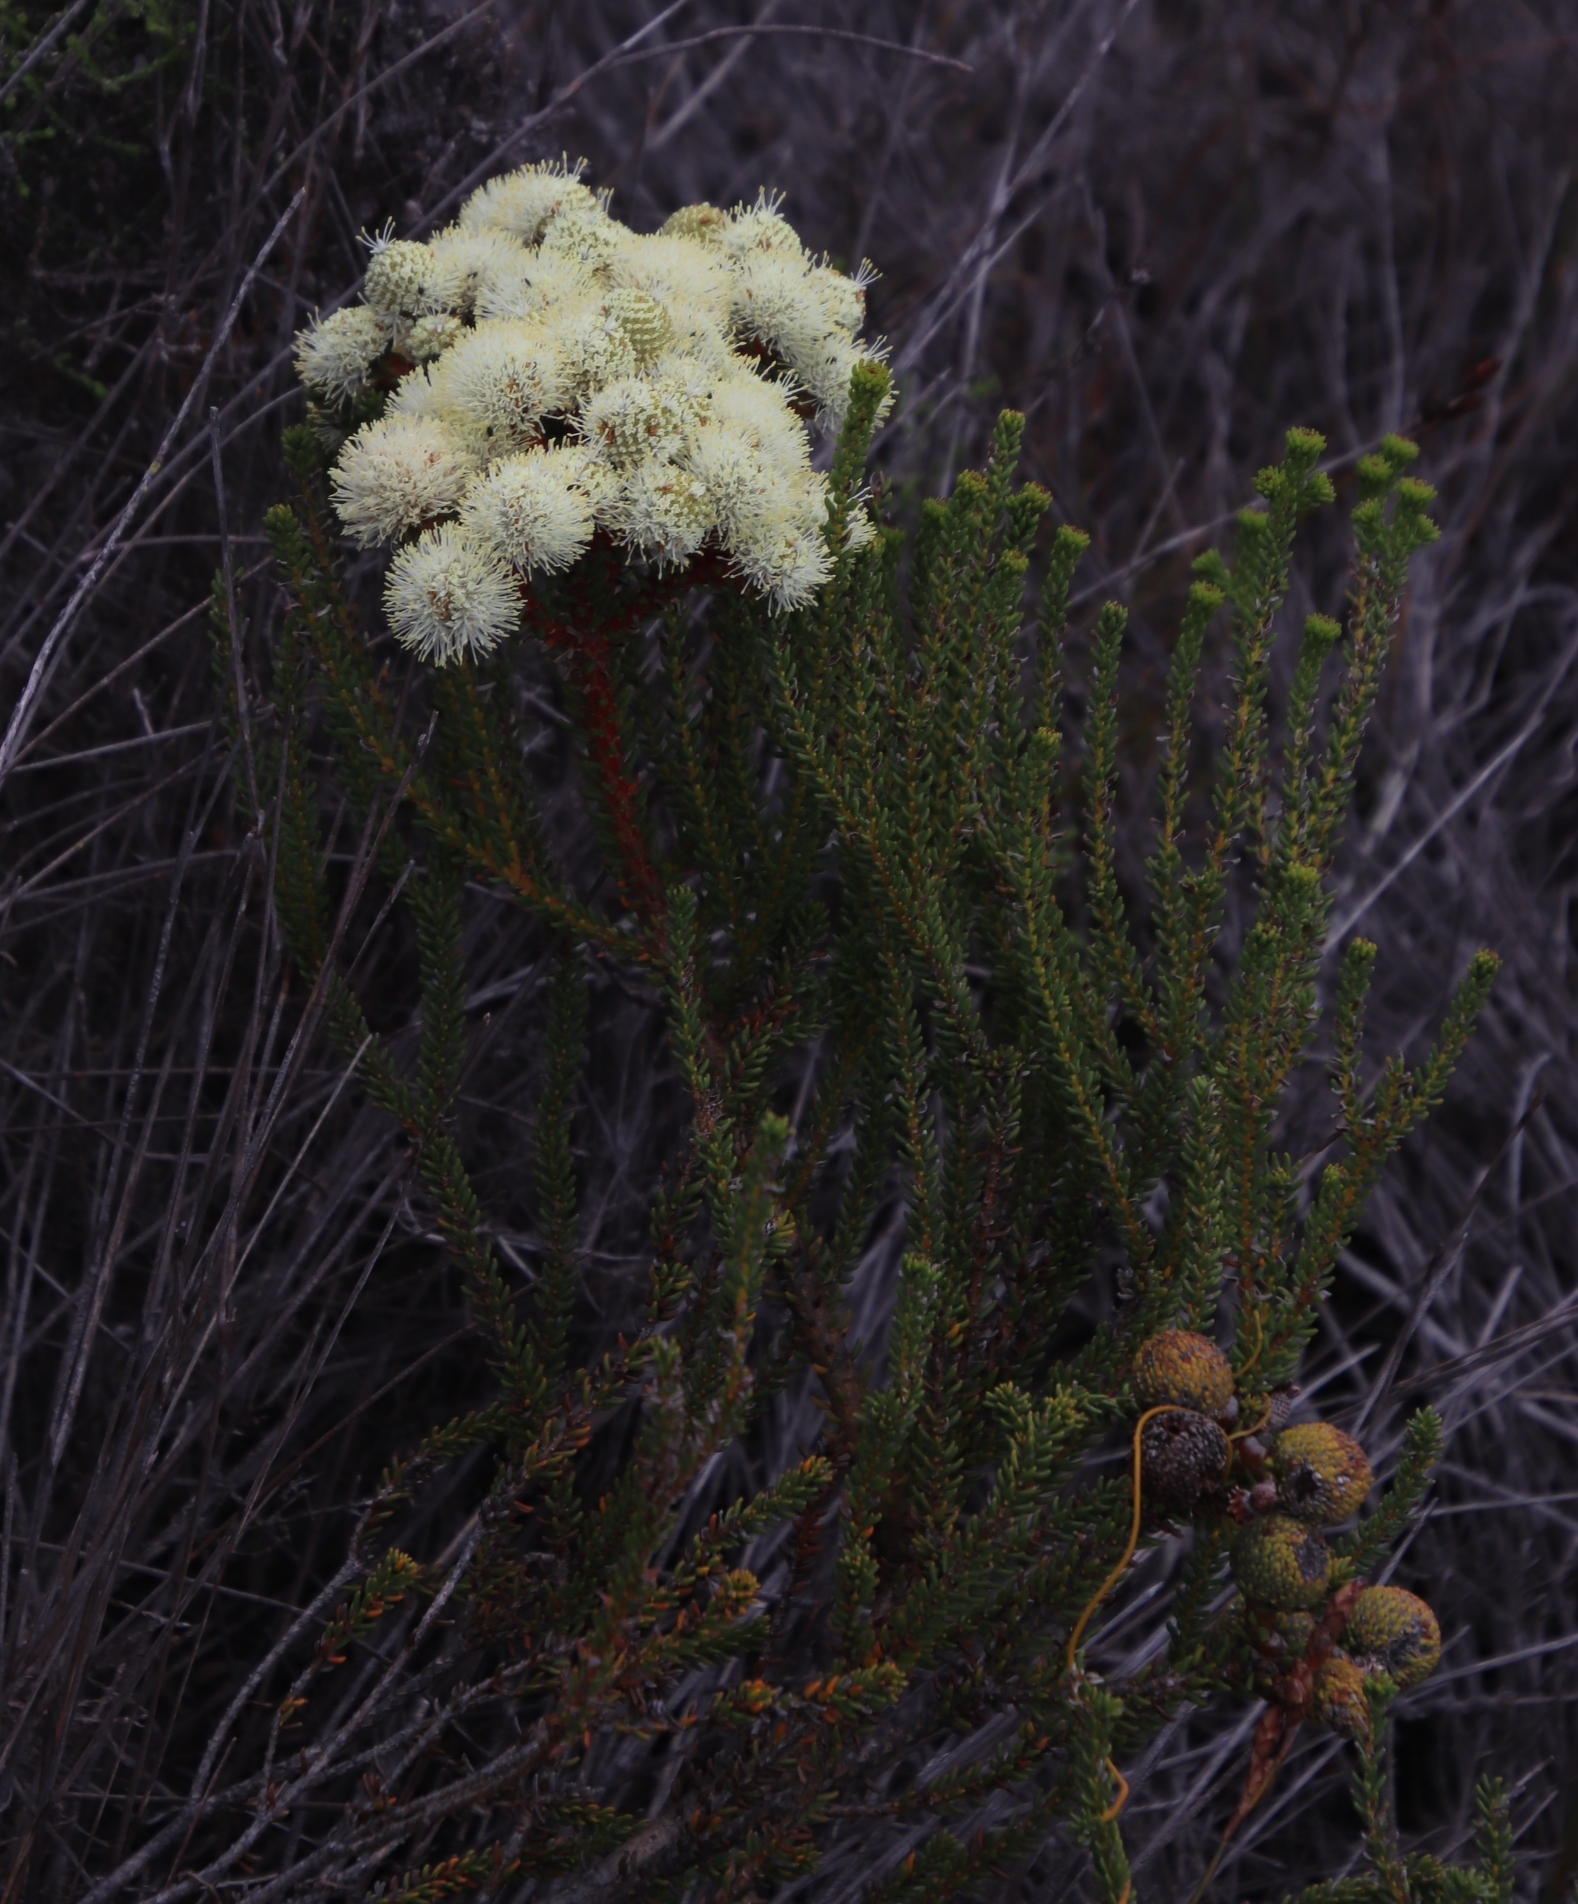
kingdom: Plantae
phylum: Tracheophyta
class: Magnoliopsida
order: Bruniales
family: Bruniaceae
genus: Berzelia
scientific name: Berzelia abrotanoides
